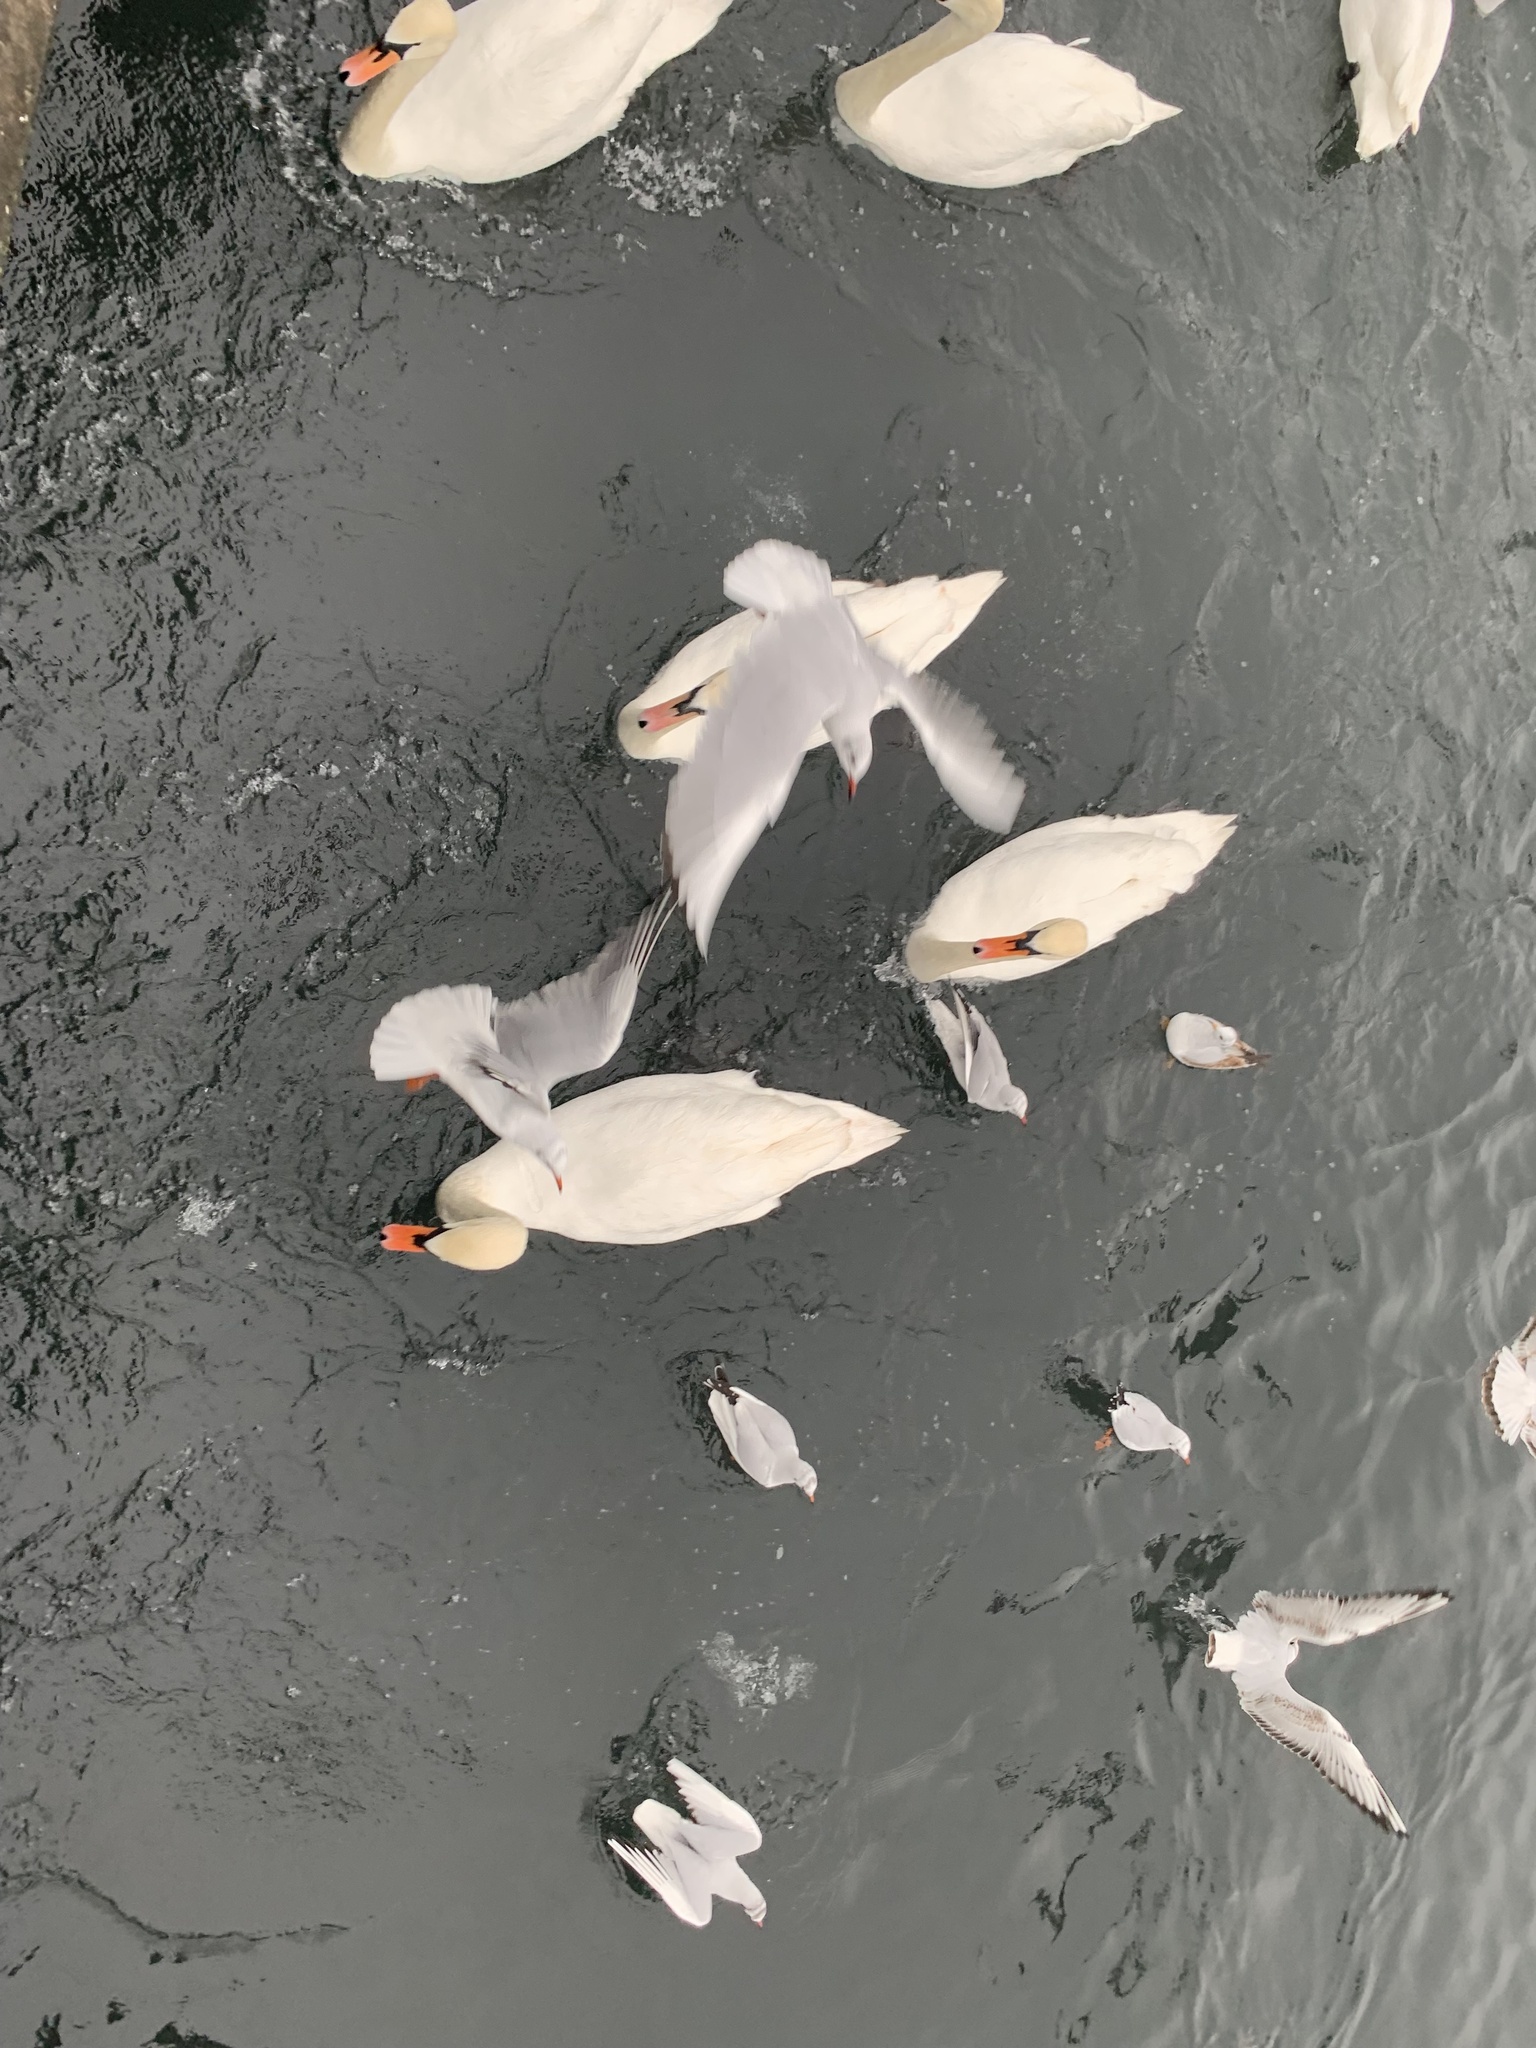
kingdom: Animalia
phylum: Chordata
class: Aves
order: Anseriformes
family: Anatidae
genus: Cygnus
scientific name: Cygnus olor
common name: Mute swan
